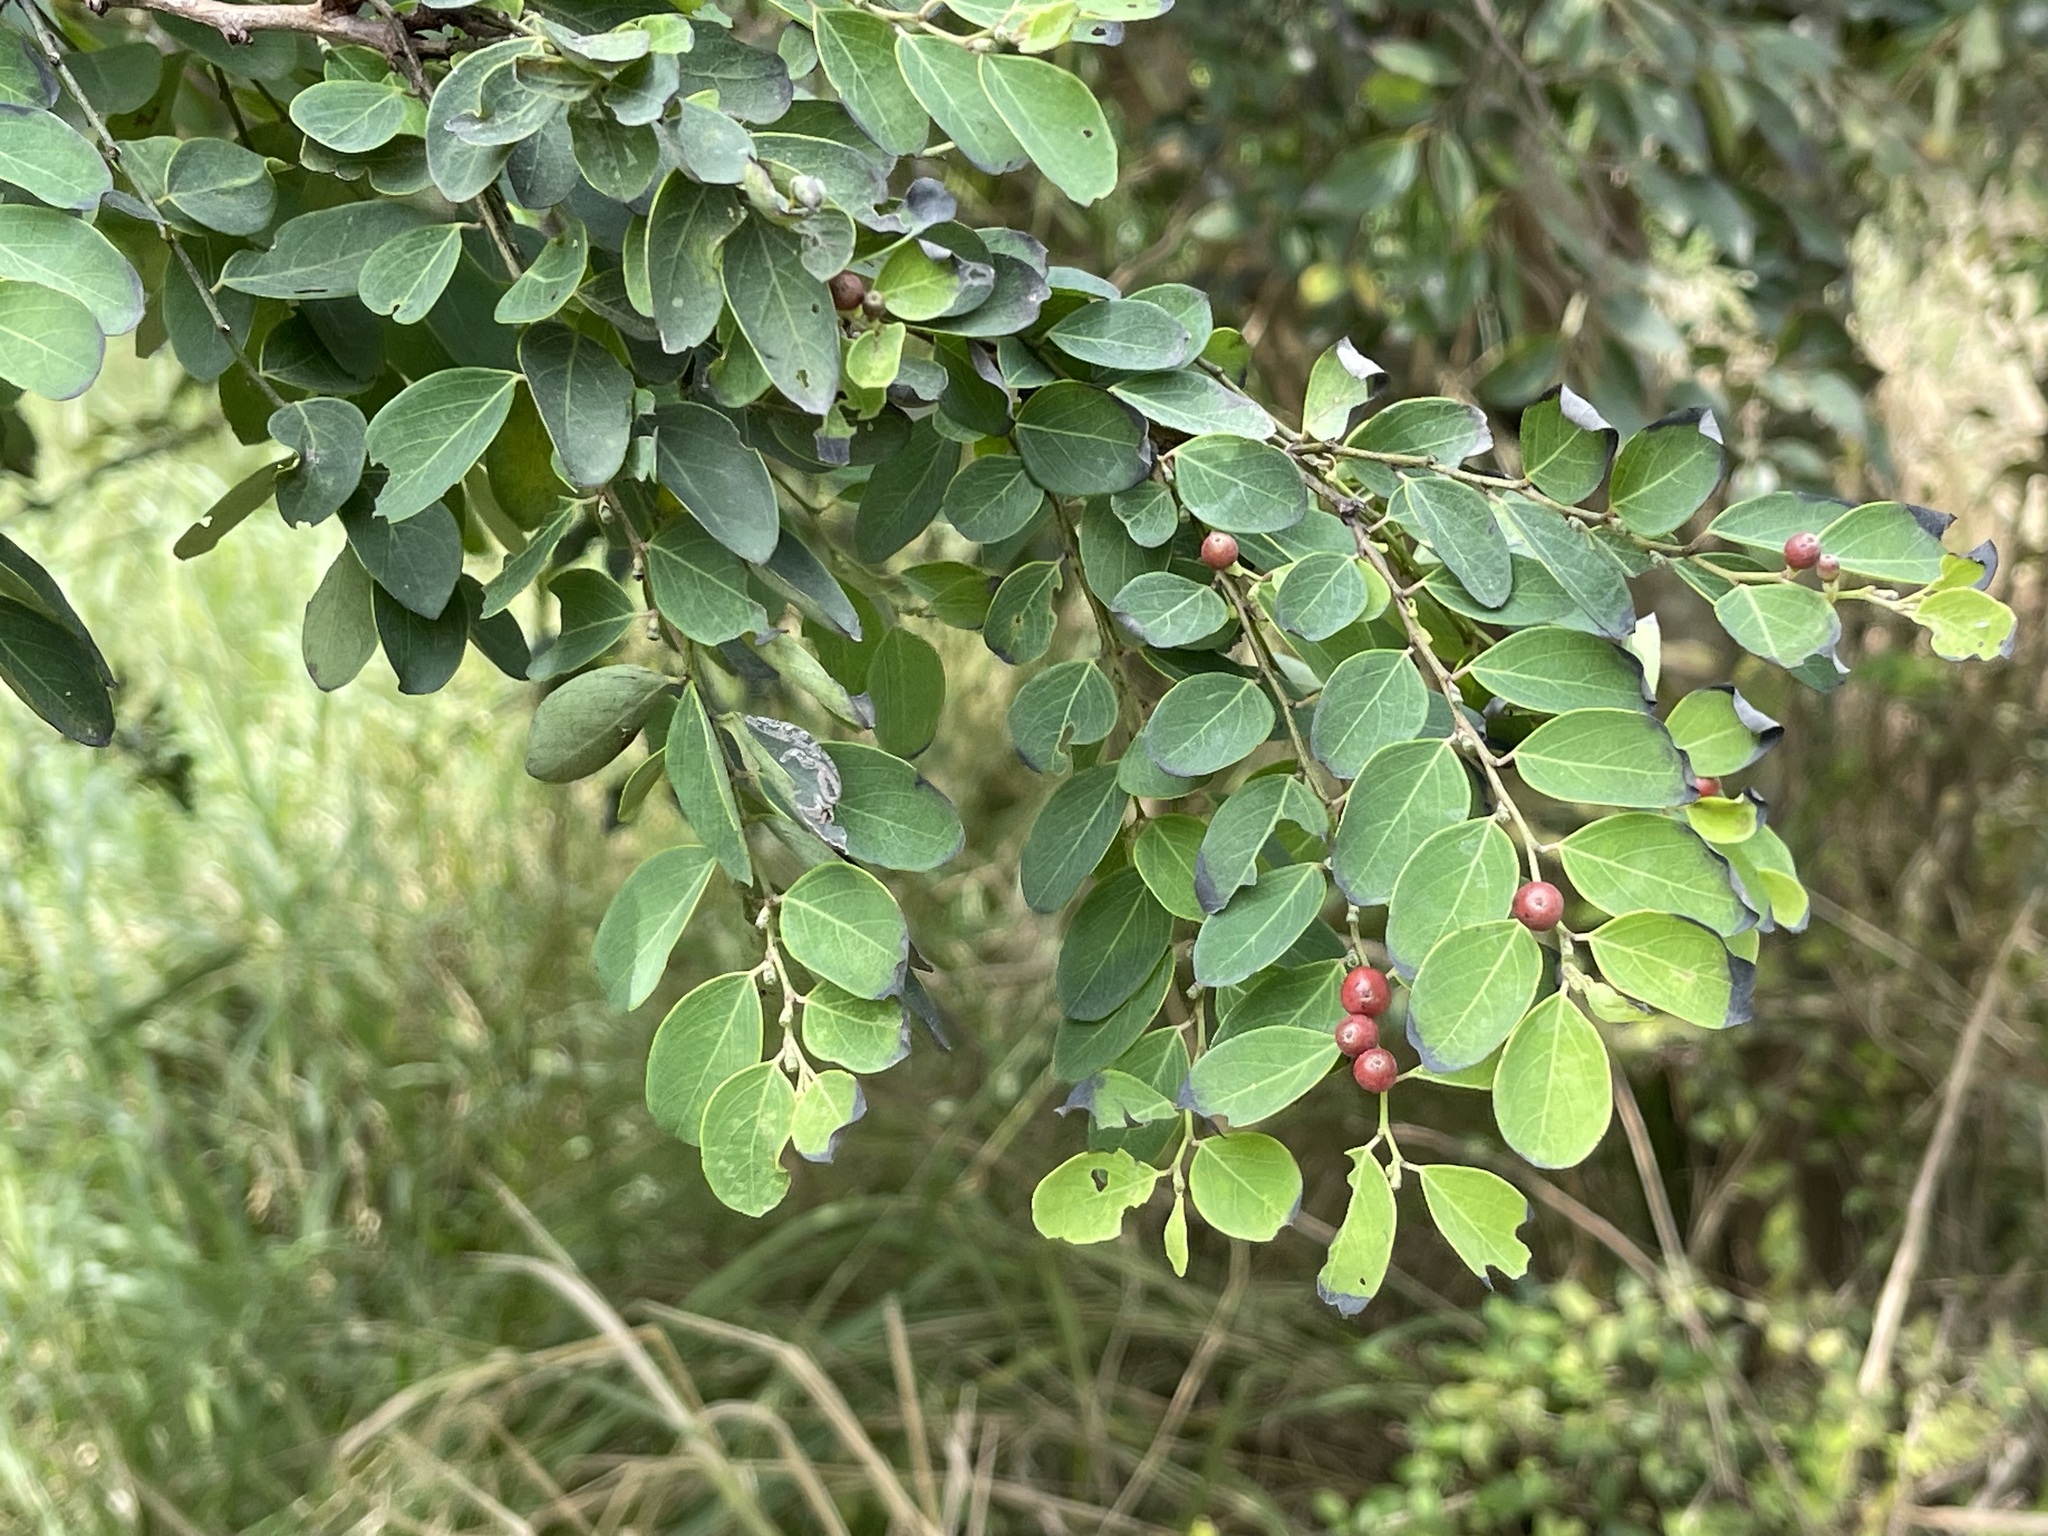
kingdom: Plantae
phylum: Tracheophyta
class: Magnoliopsida
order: Malpighiales
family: Phyllanthaceae
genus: Breynia
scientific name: Breynia vitis-idaea
